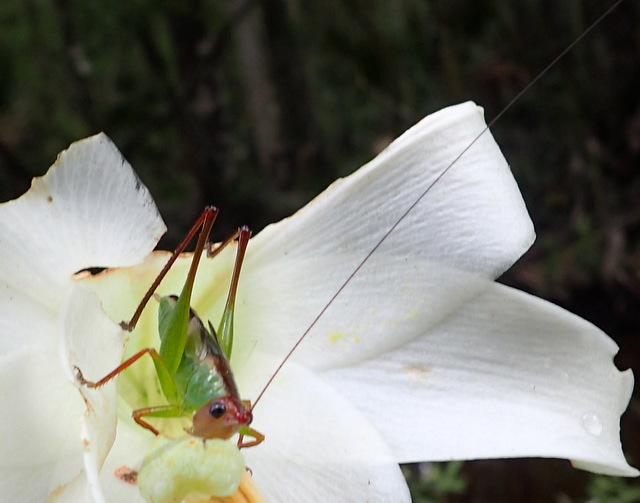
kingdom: Animalia
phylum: Arthropoda
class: Insecta
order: Orthoptera
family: Tettigoniidae
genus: Orchelimum
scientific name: Orchelimum pulchellum
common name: Handsome meadow katydid
